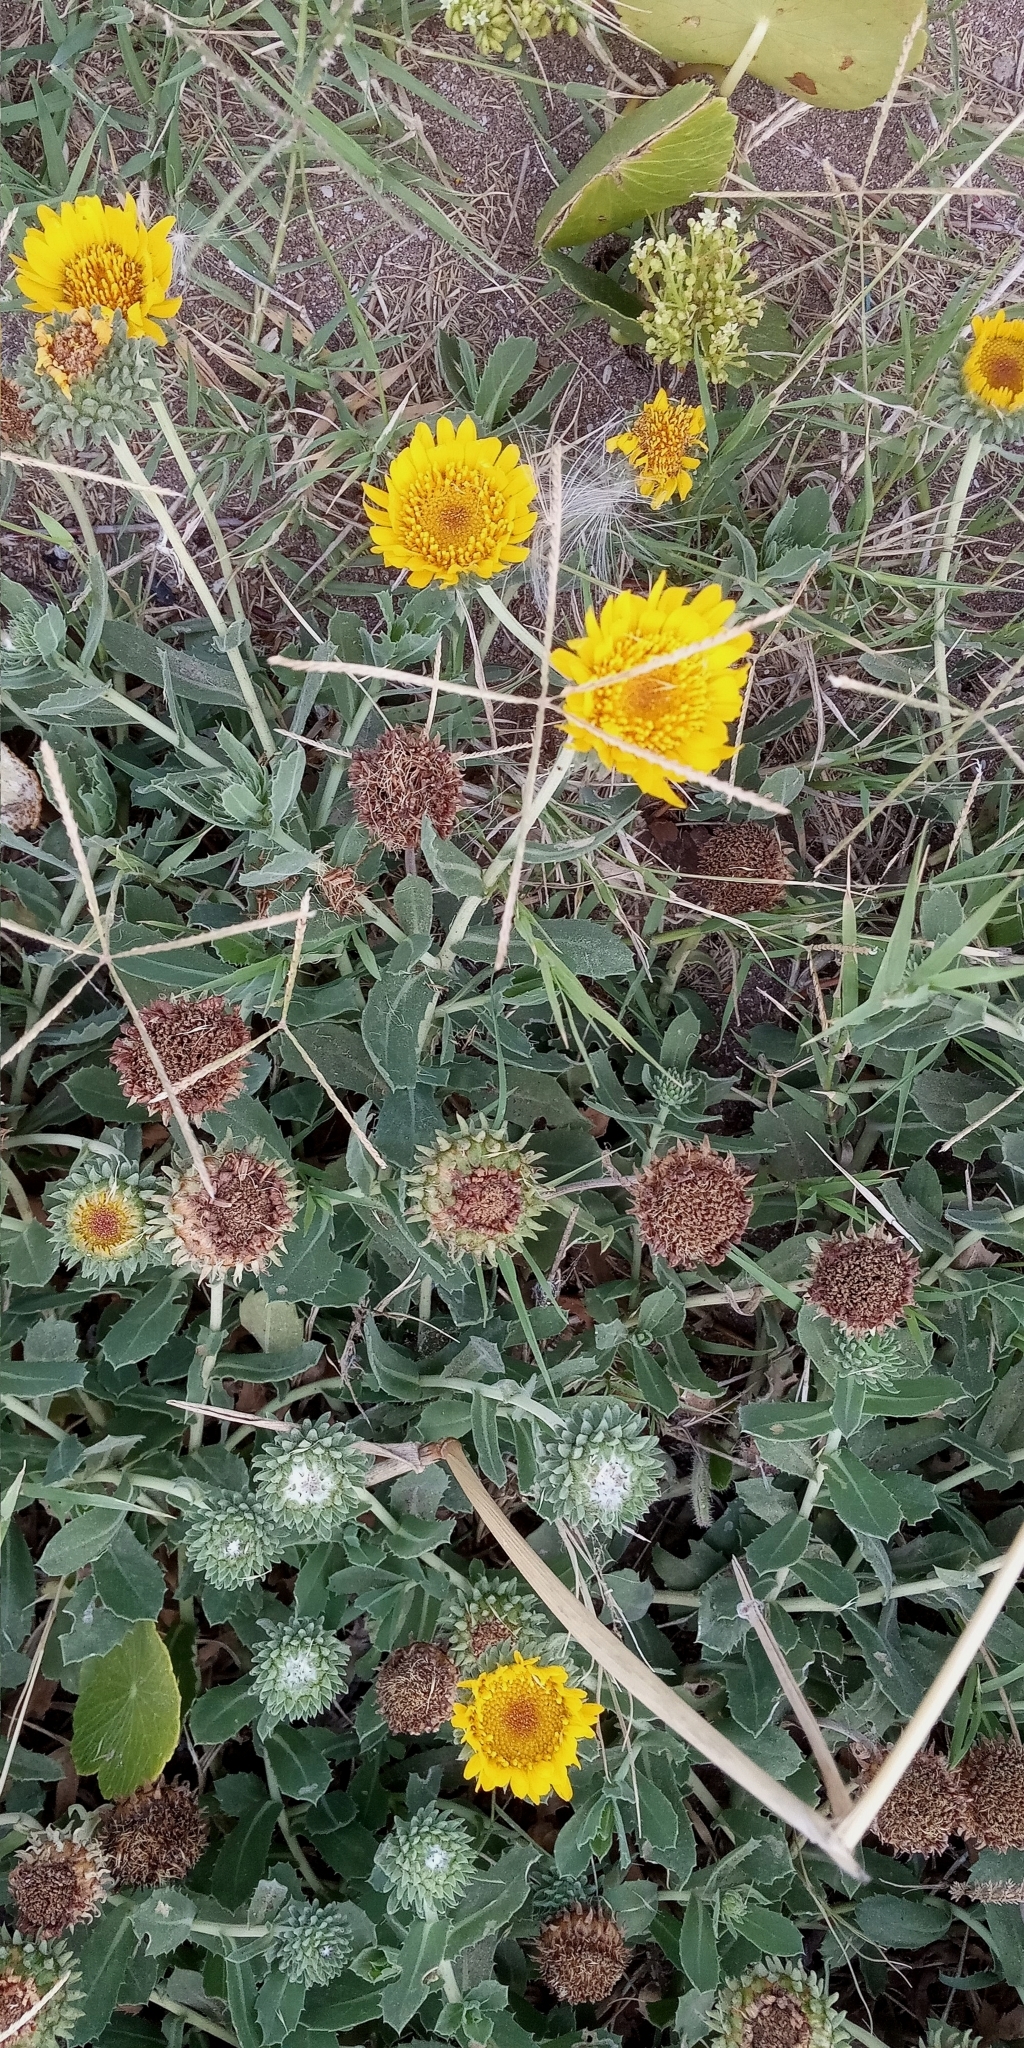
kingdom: Plantae
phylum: Tracheophyta
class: Magnoliopsida
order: Asterales
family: Asteraceae
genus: Grindelia
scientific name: Grindelia aegialitis
